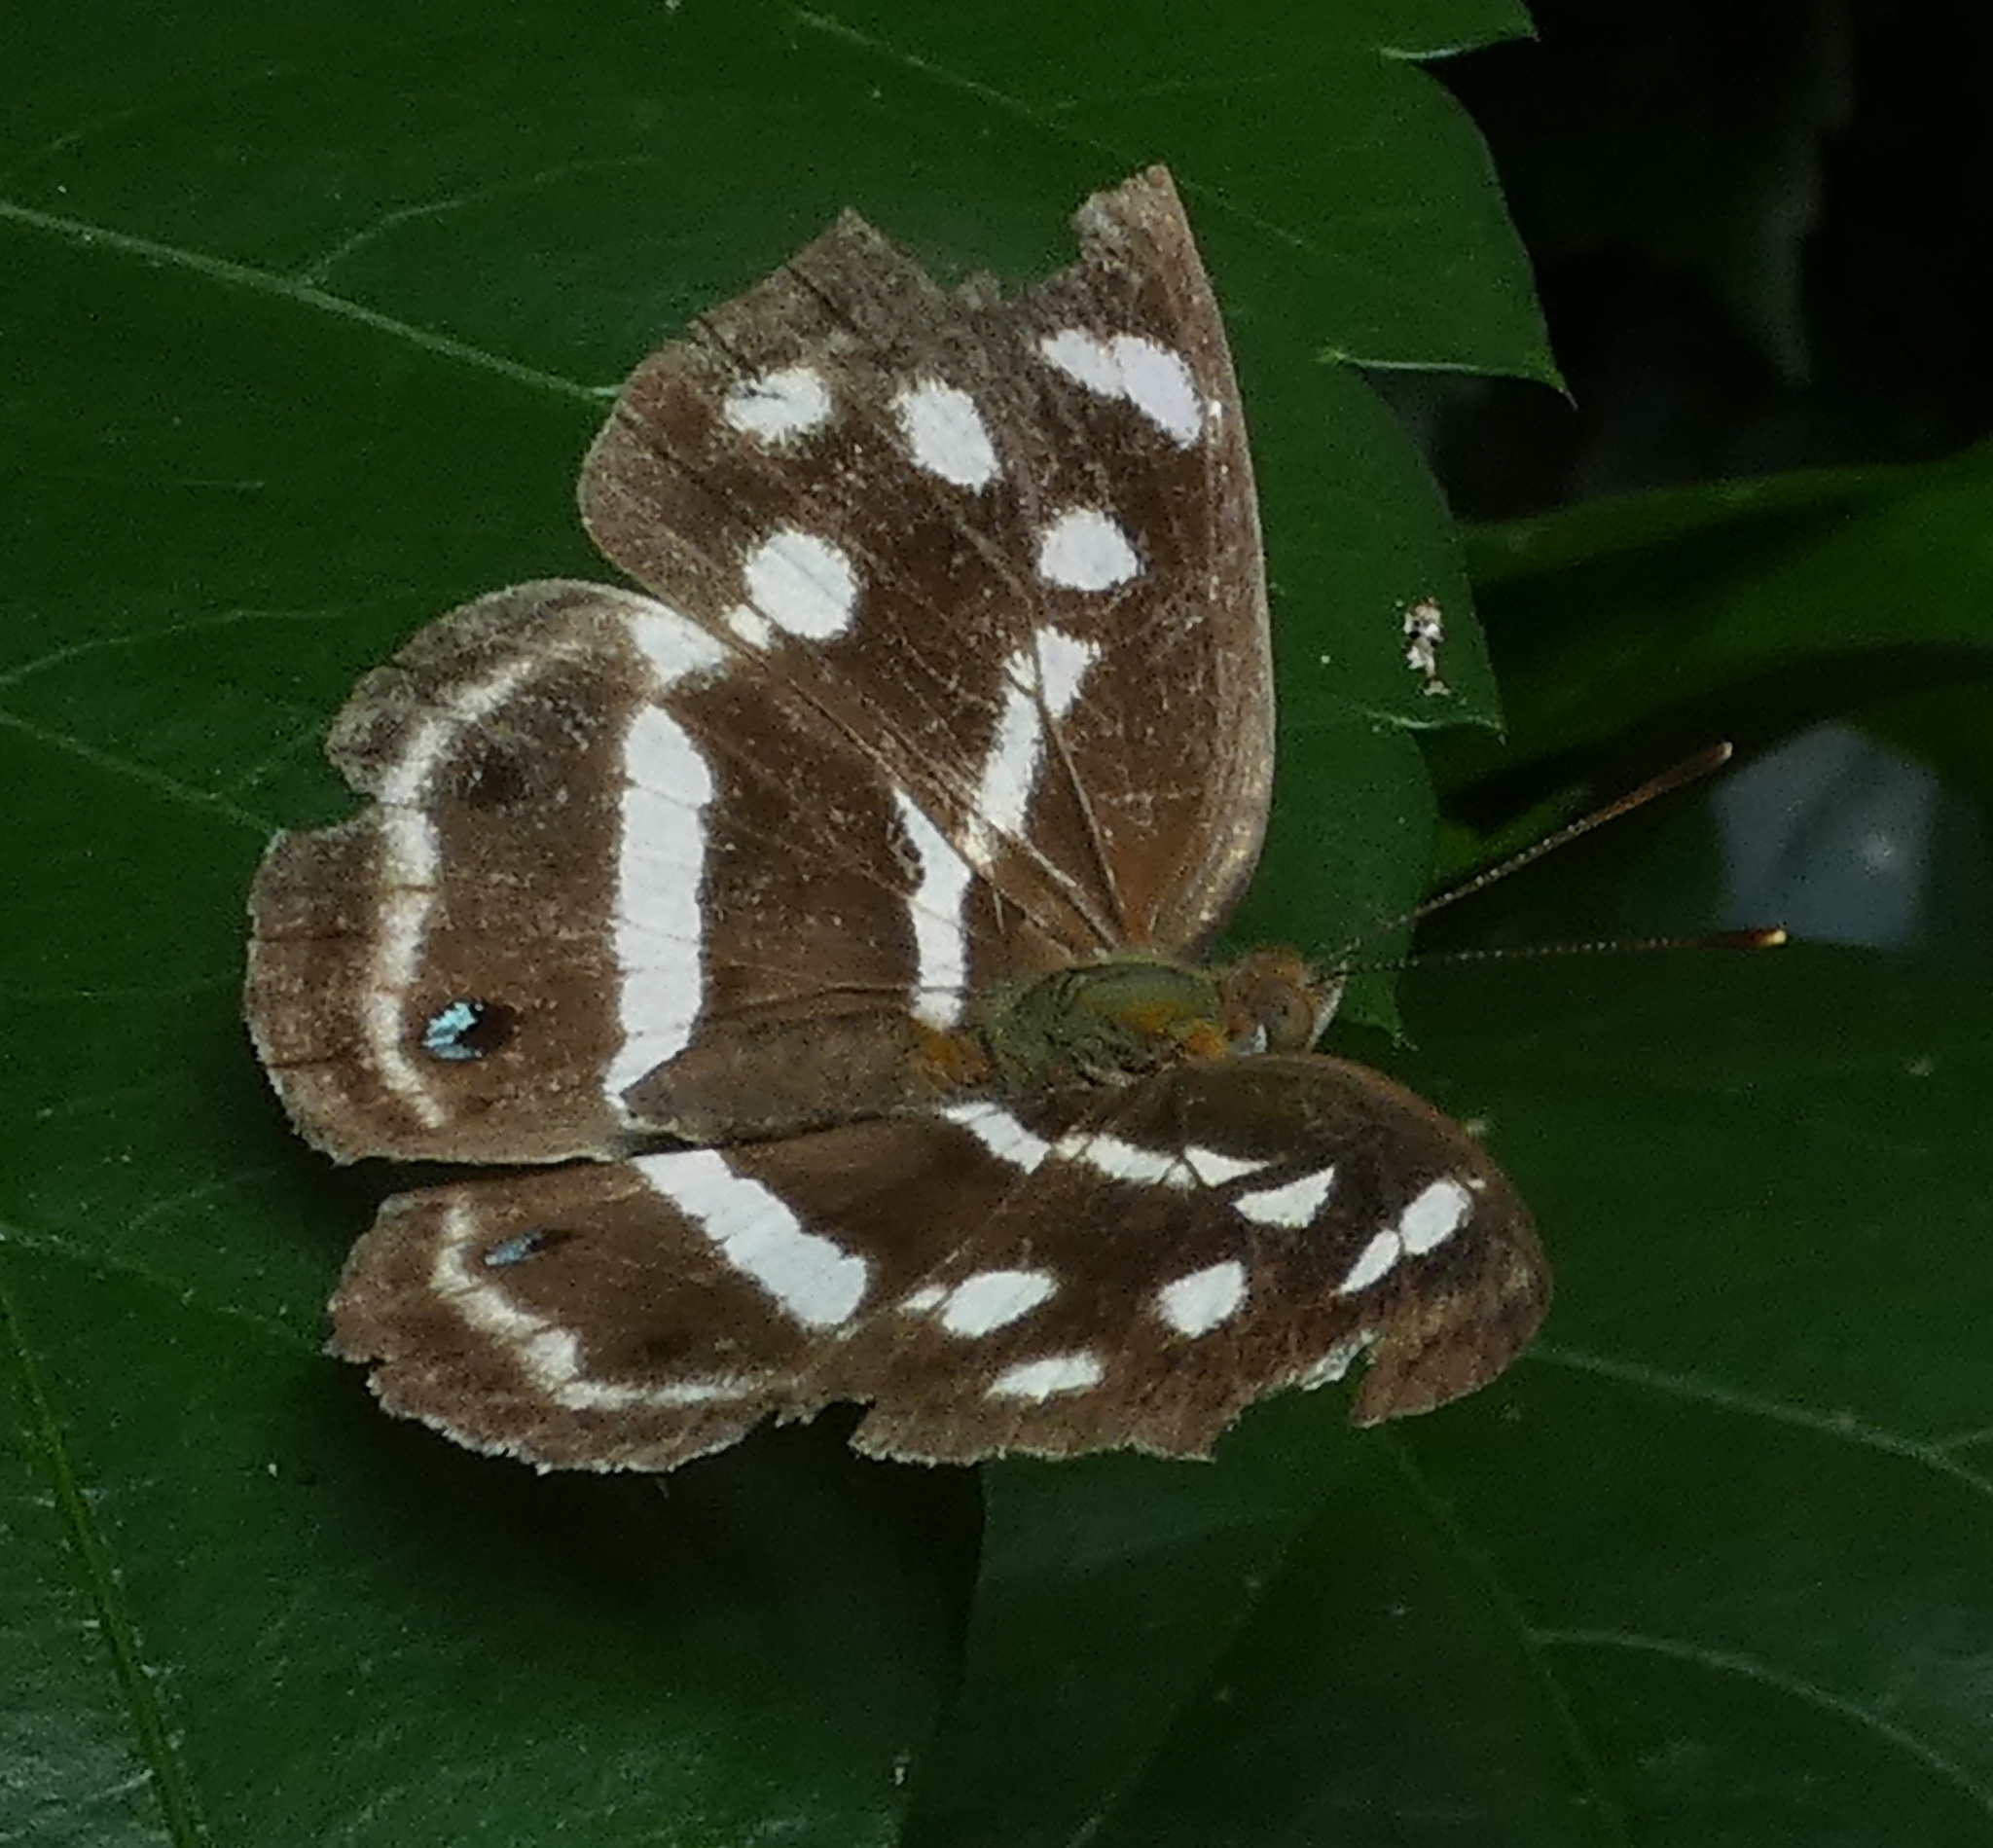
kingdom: Animalia
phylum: Arthropoda
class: Insecta
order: Lepidoptera
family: Nymphalidae
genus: Dynamine
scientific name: Dynamine mylitta
